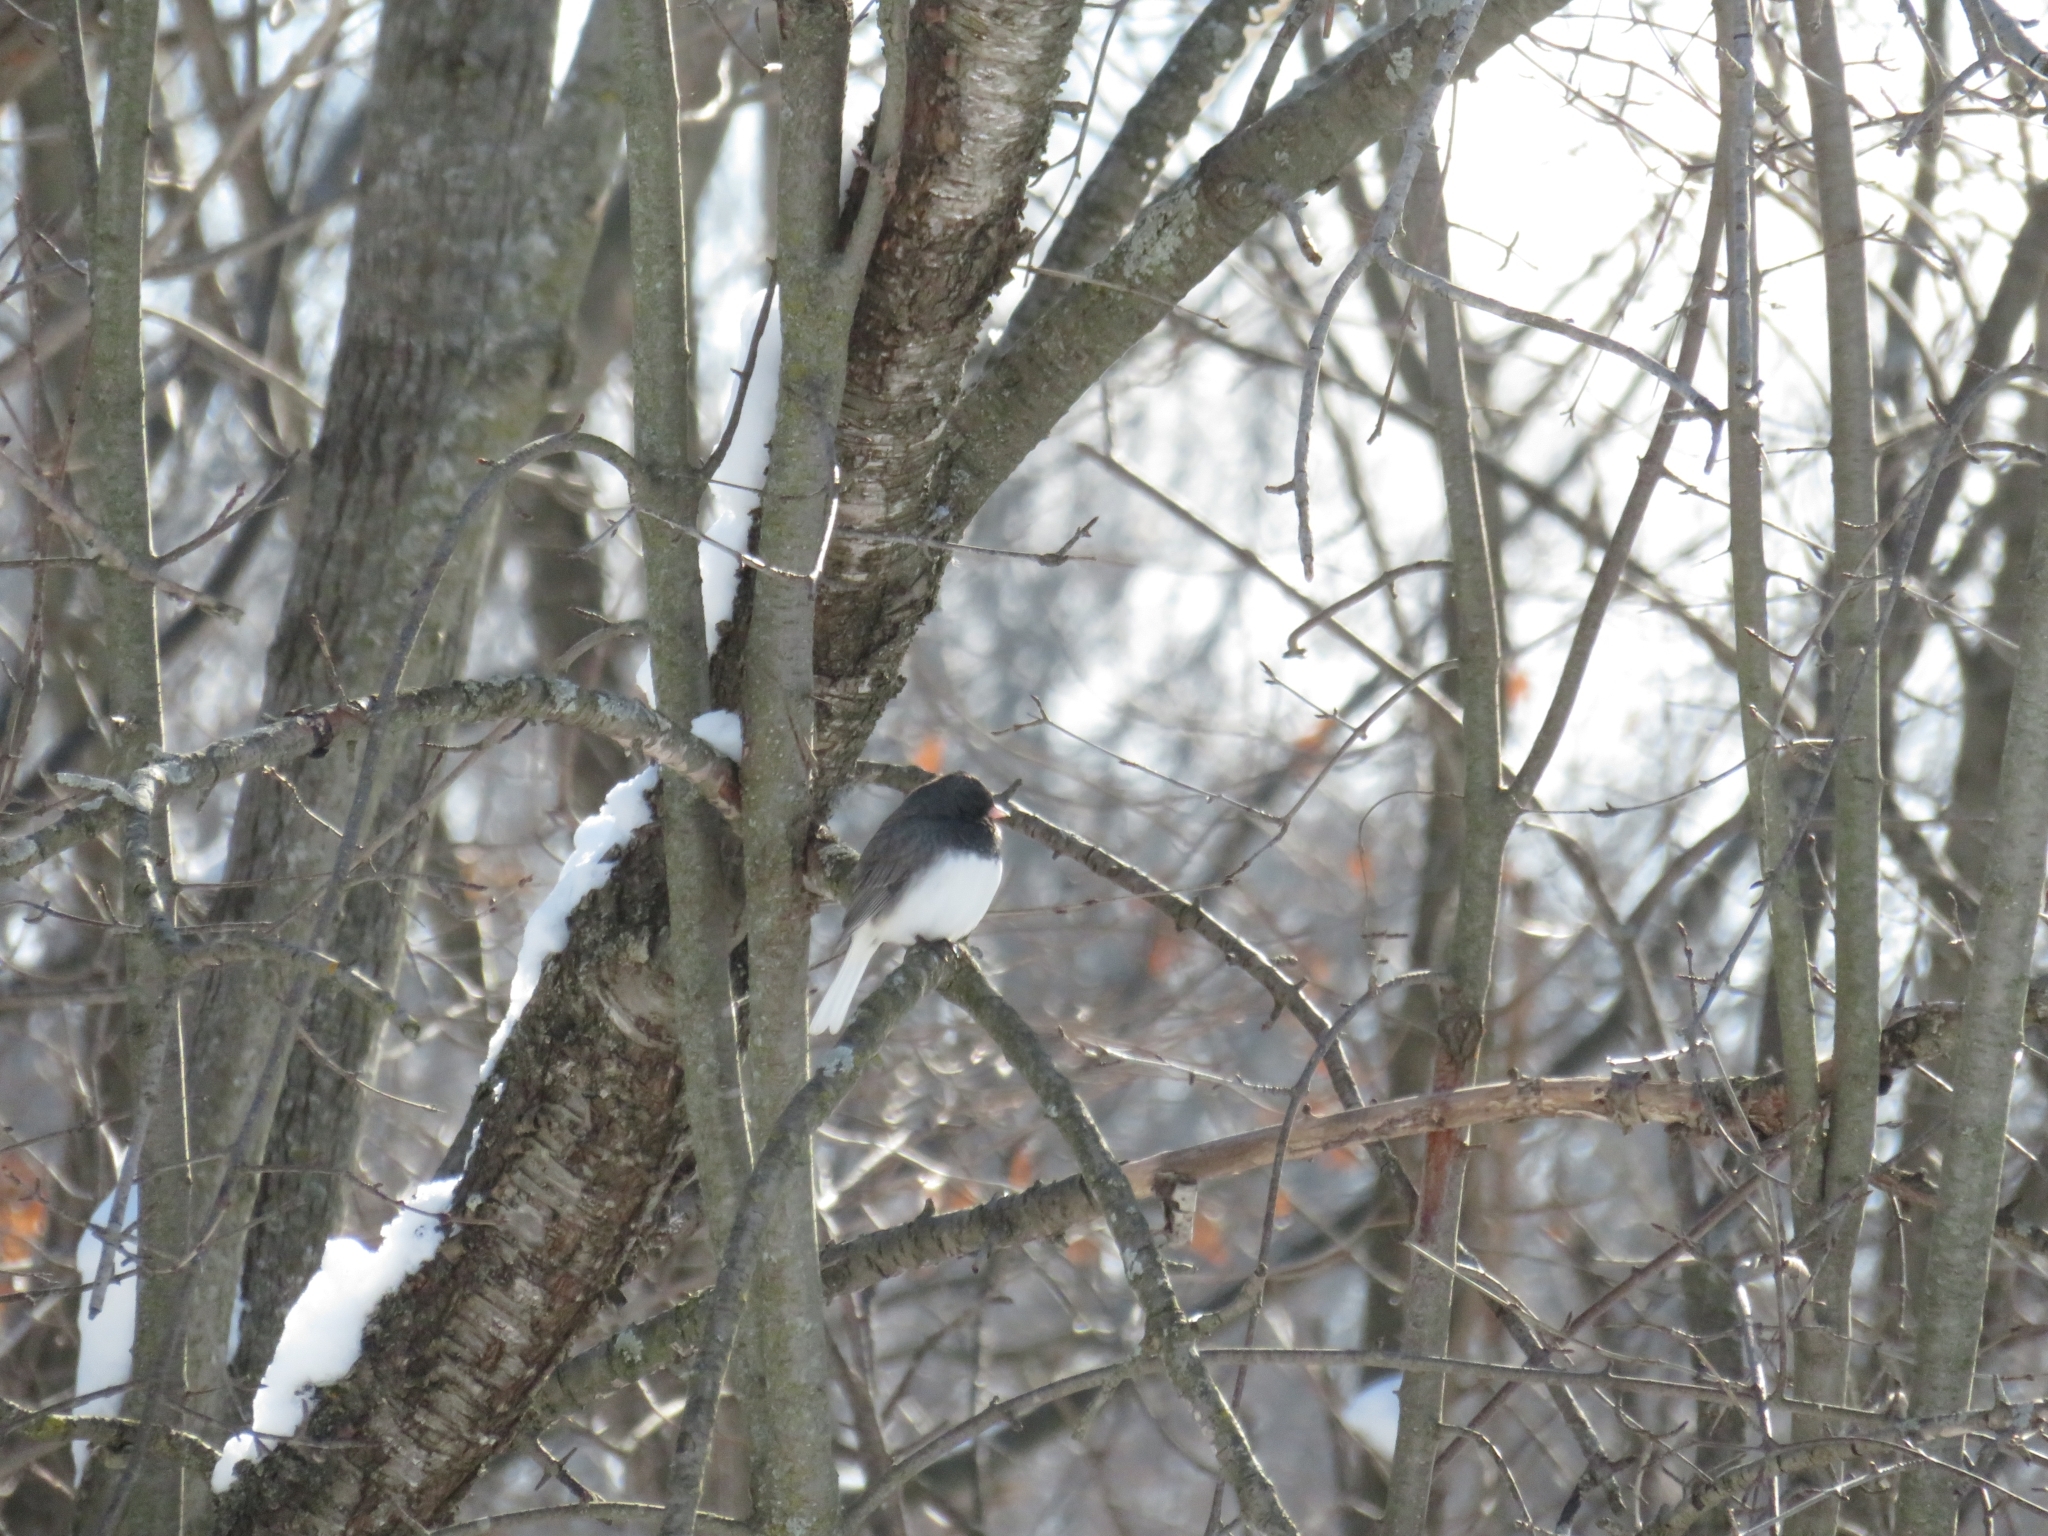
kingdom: Animalia
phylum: Chordata
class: Aves
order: Passeriformes
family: Passerellidae
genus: Junco
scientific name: Junco hyemalis
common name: Dark-eyed junco
